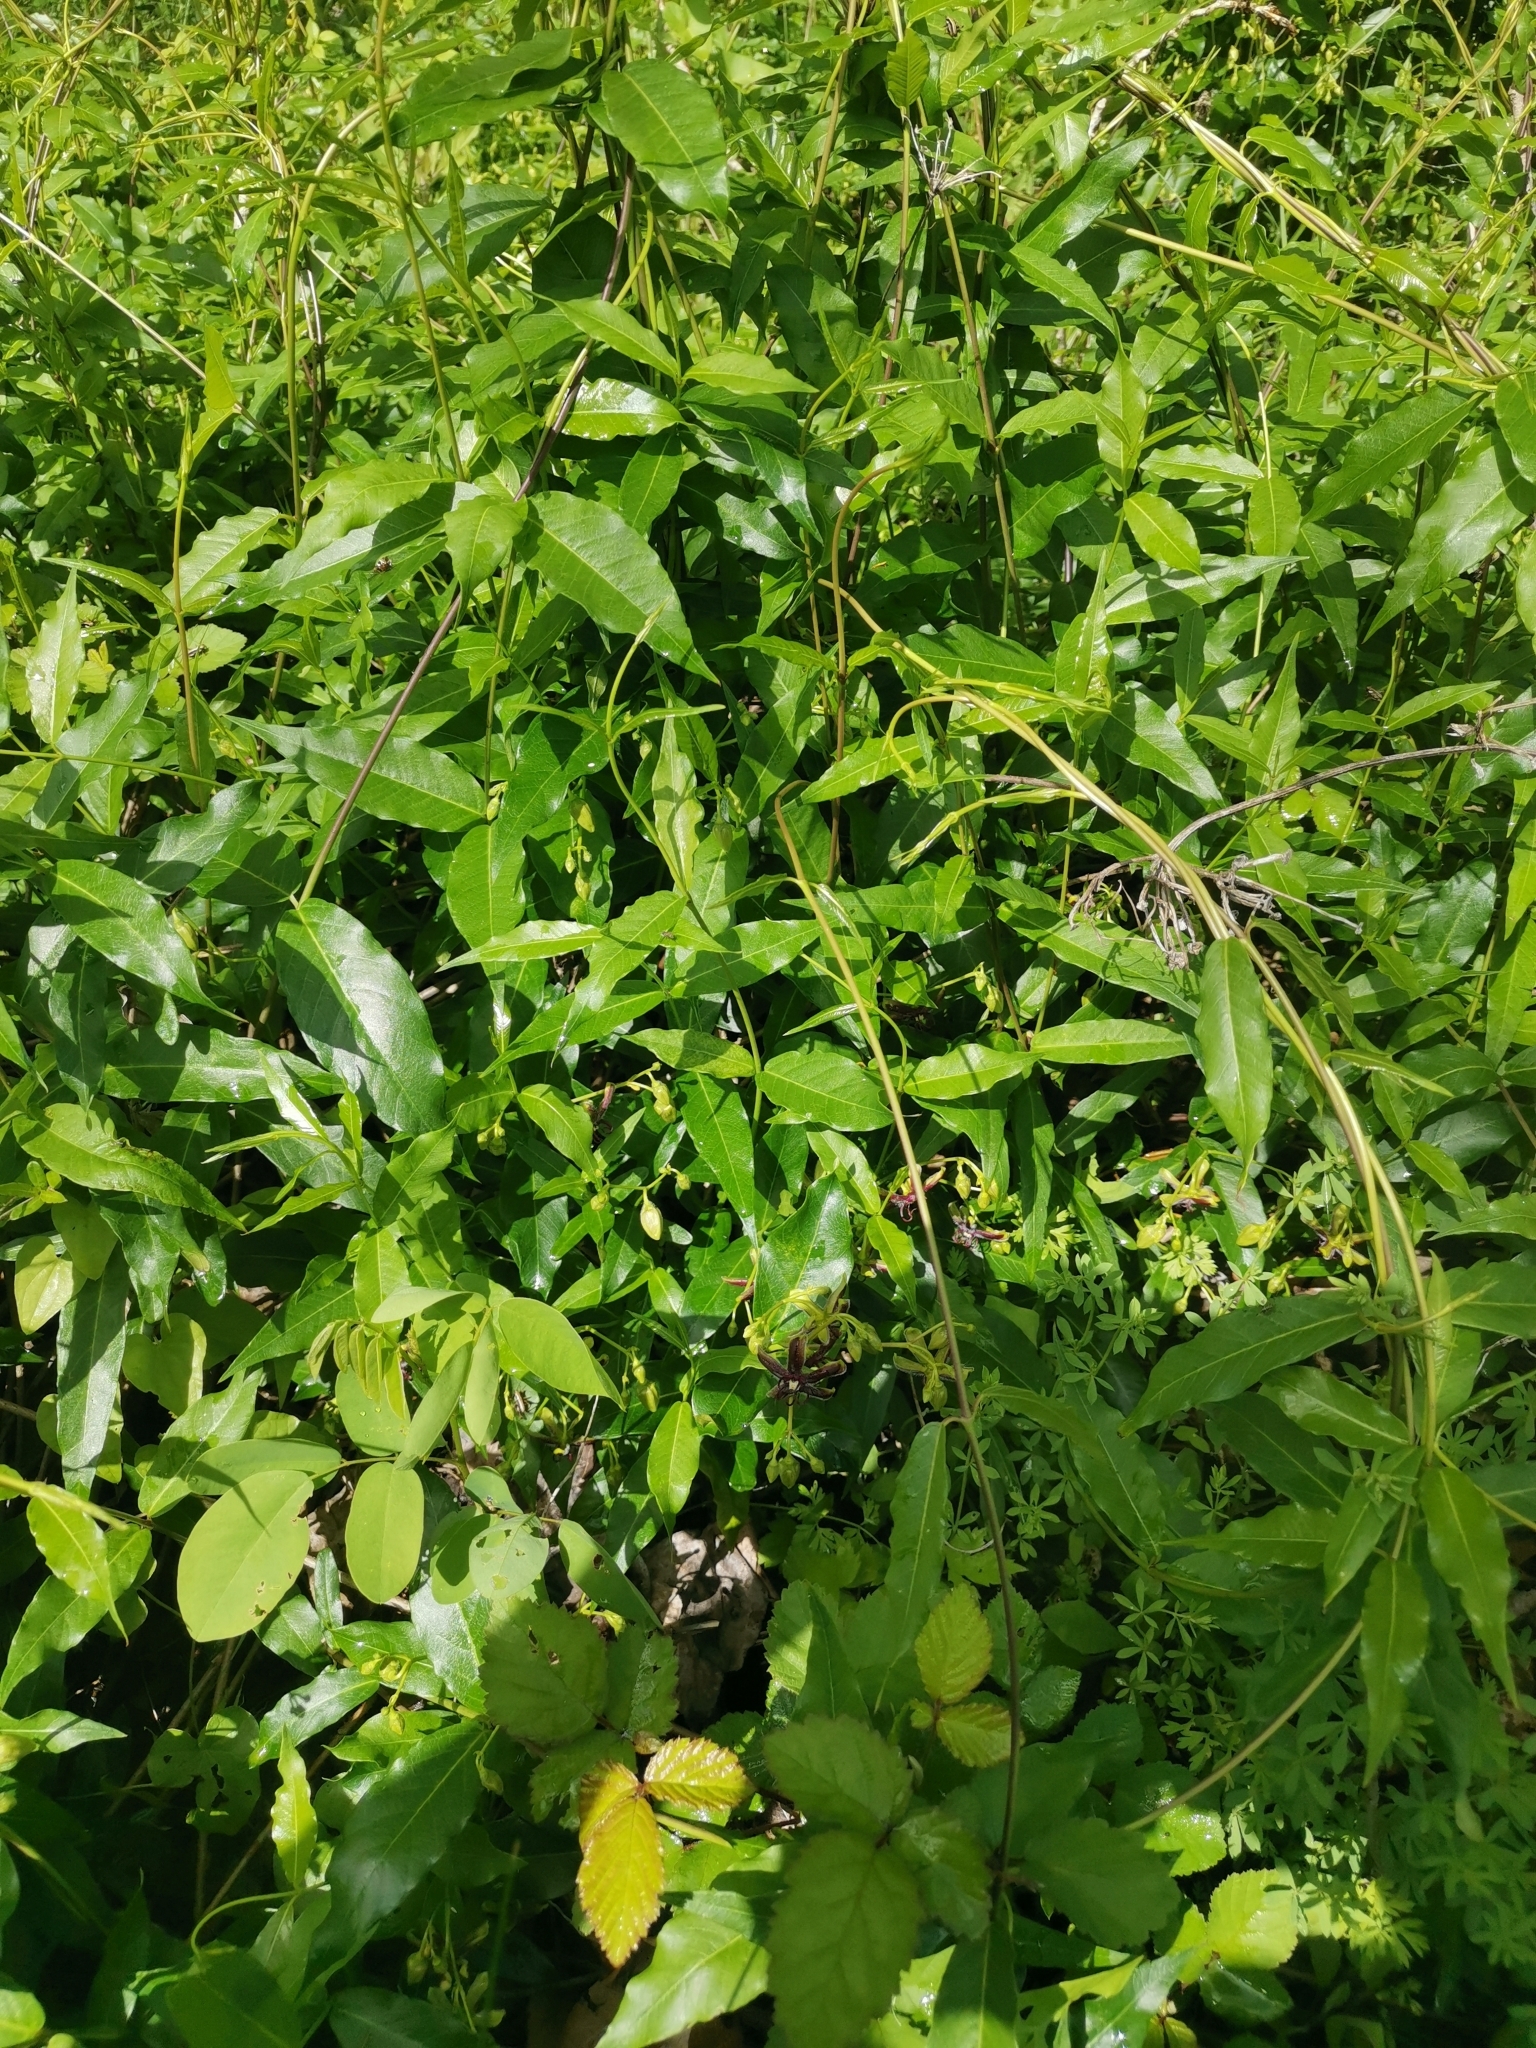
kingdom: Plantae
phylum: Tracheophyta
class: Magnoliopsida
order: Gentianales
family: Apocynaceae
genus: Periploca
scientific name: Periploca graeca
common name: Silkvine
